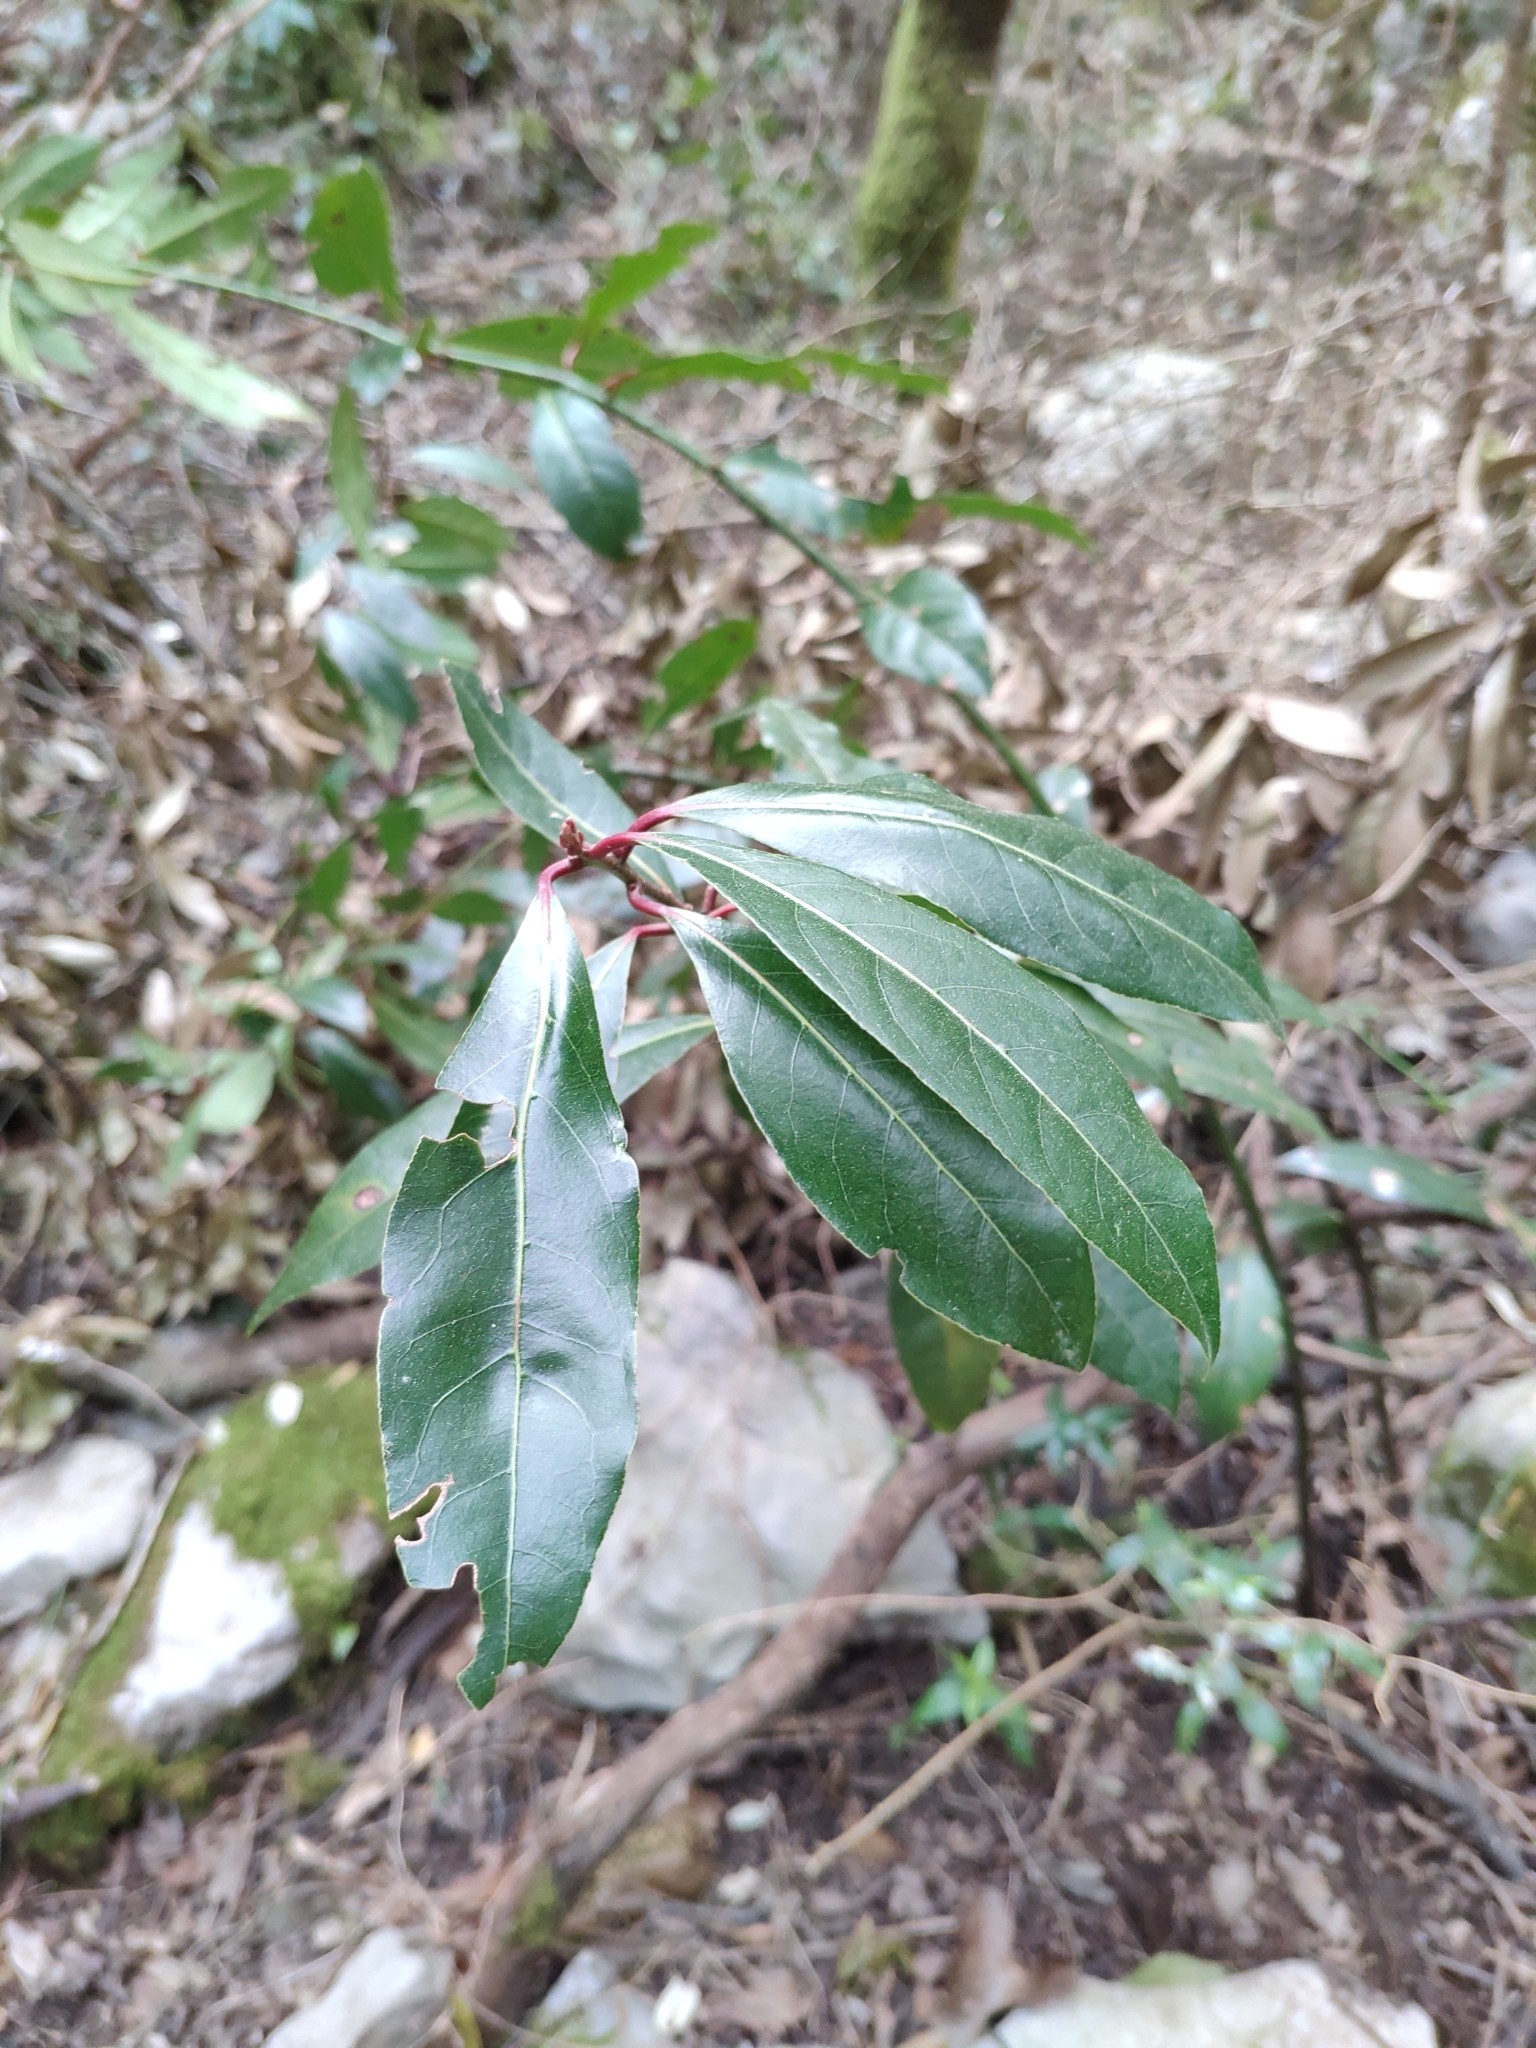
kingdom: Plantae
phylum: Tracheophyta
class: Magnoliopsida
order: Laurales
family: Lauraceae
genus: Laurus
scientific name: Laurus nobilis
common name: Bay
